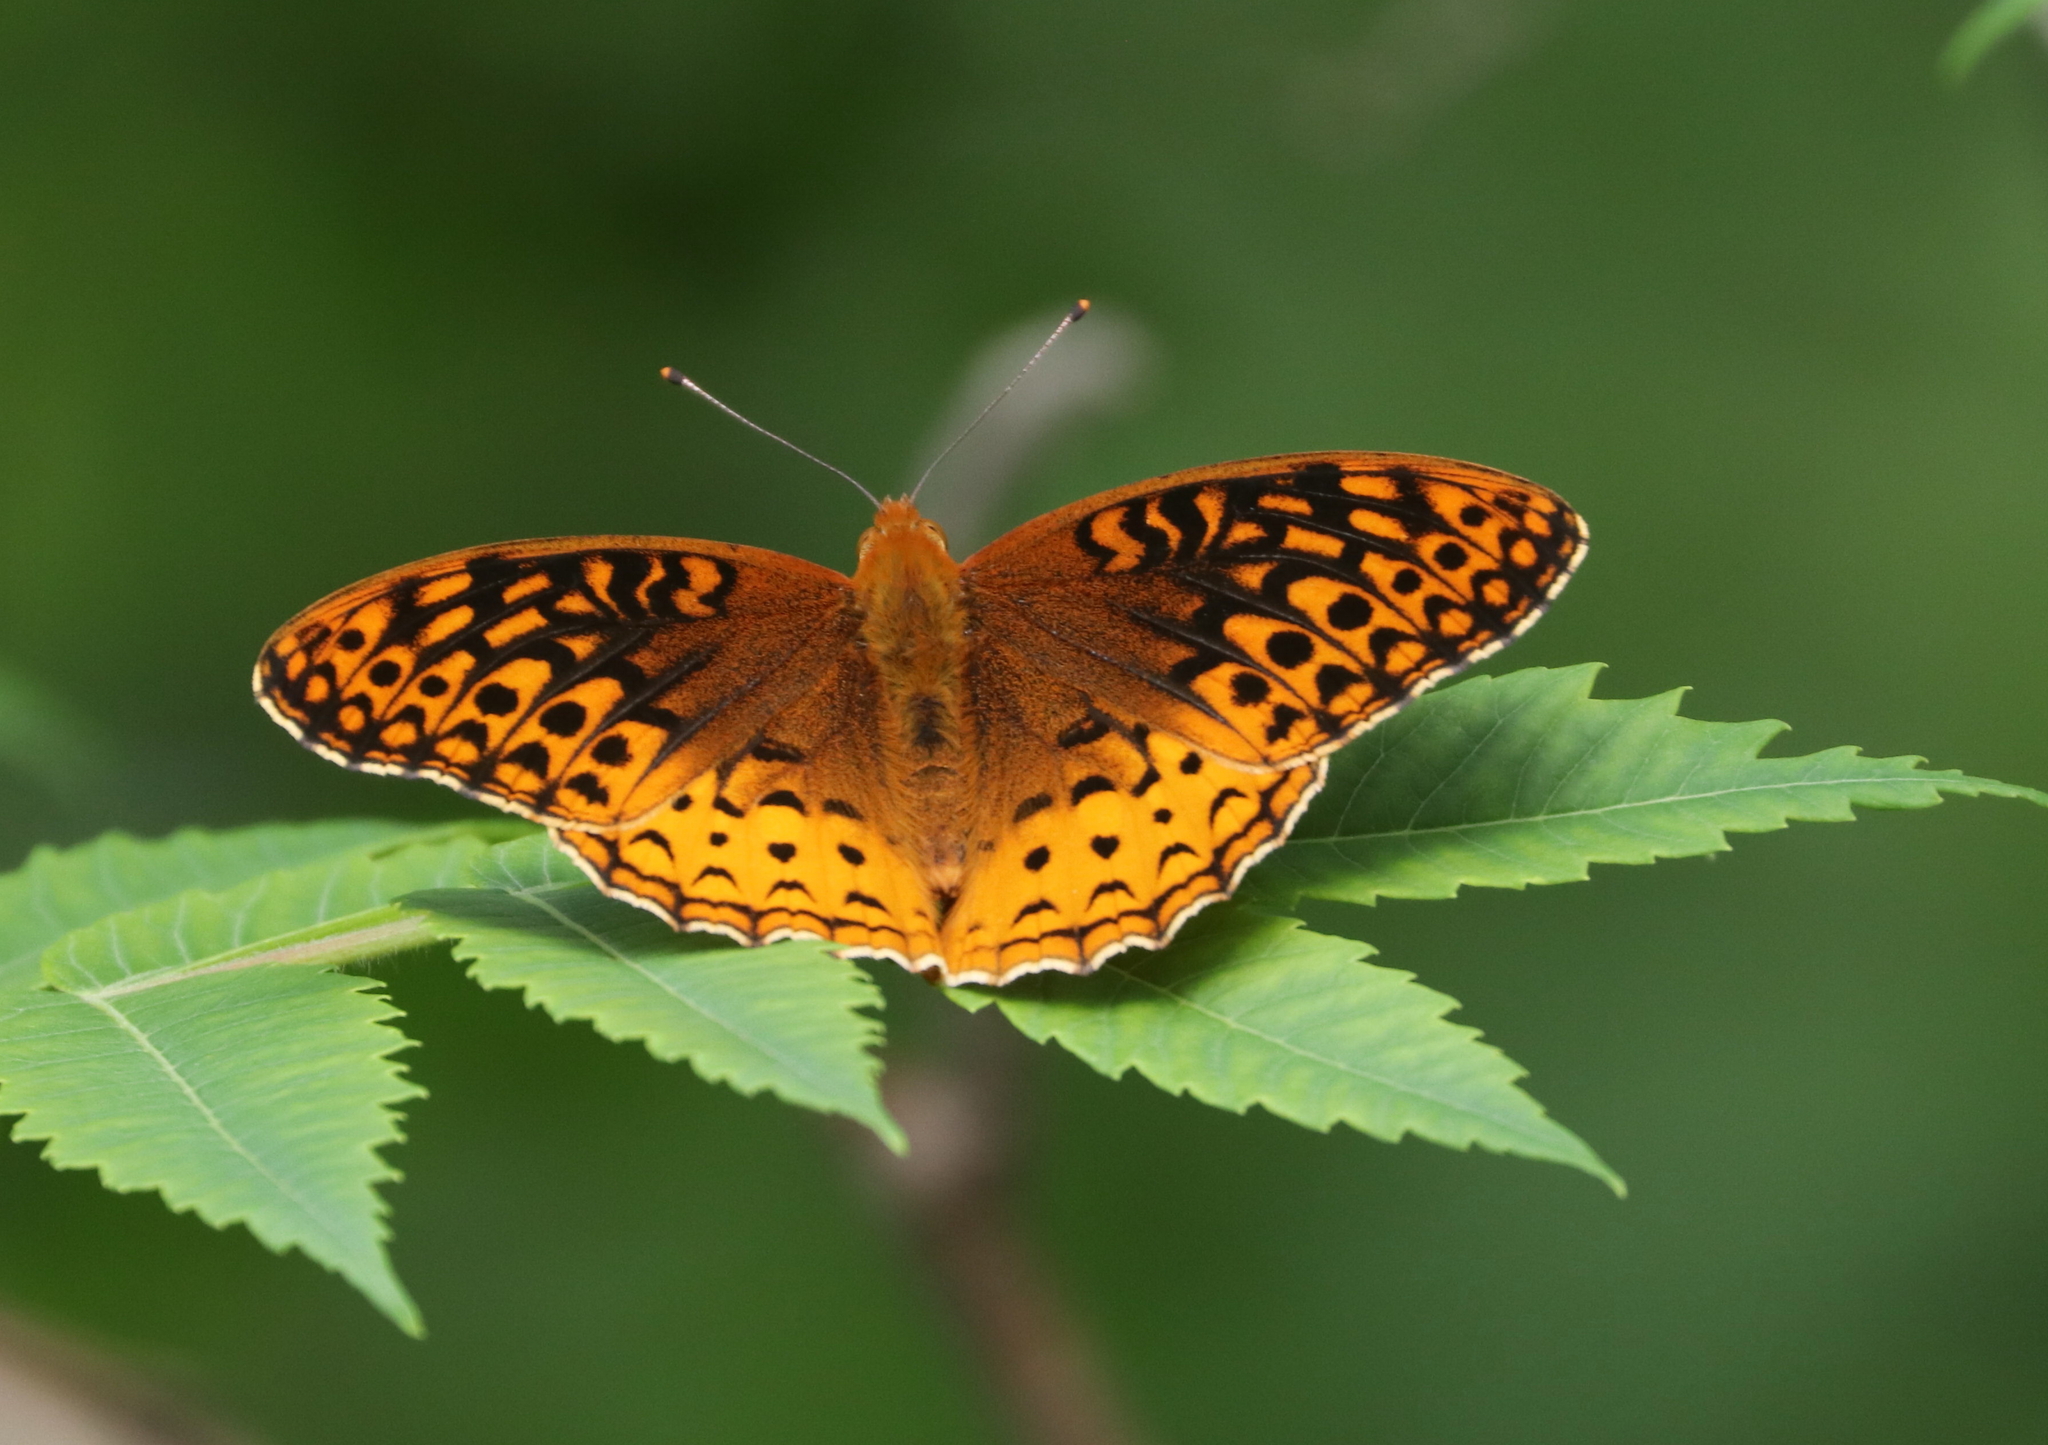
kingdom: Animalia
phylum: Arthropoda
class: Insecta
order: Lepidoptera
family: Nymphalidae
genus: Speyeria
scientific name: Speyeria cybele
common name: Great spangled fritillary
